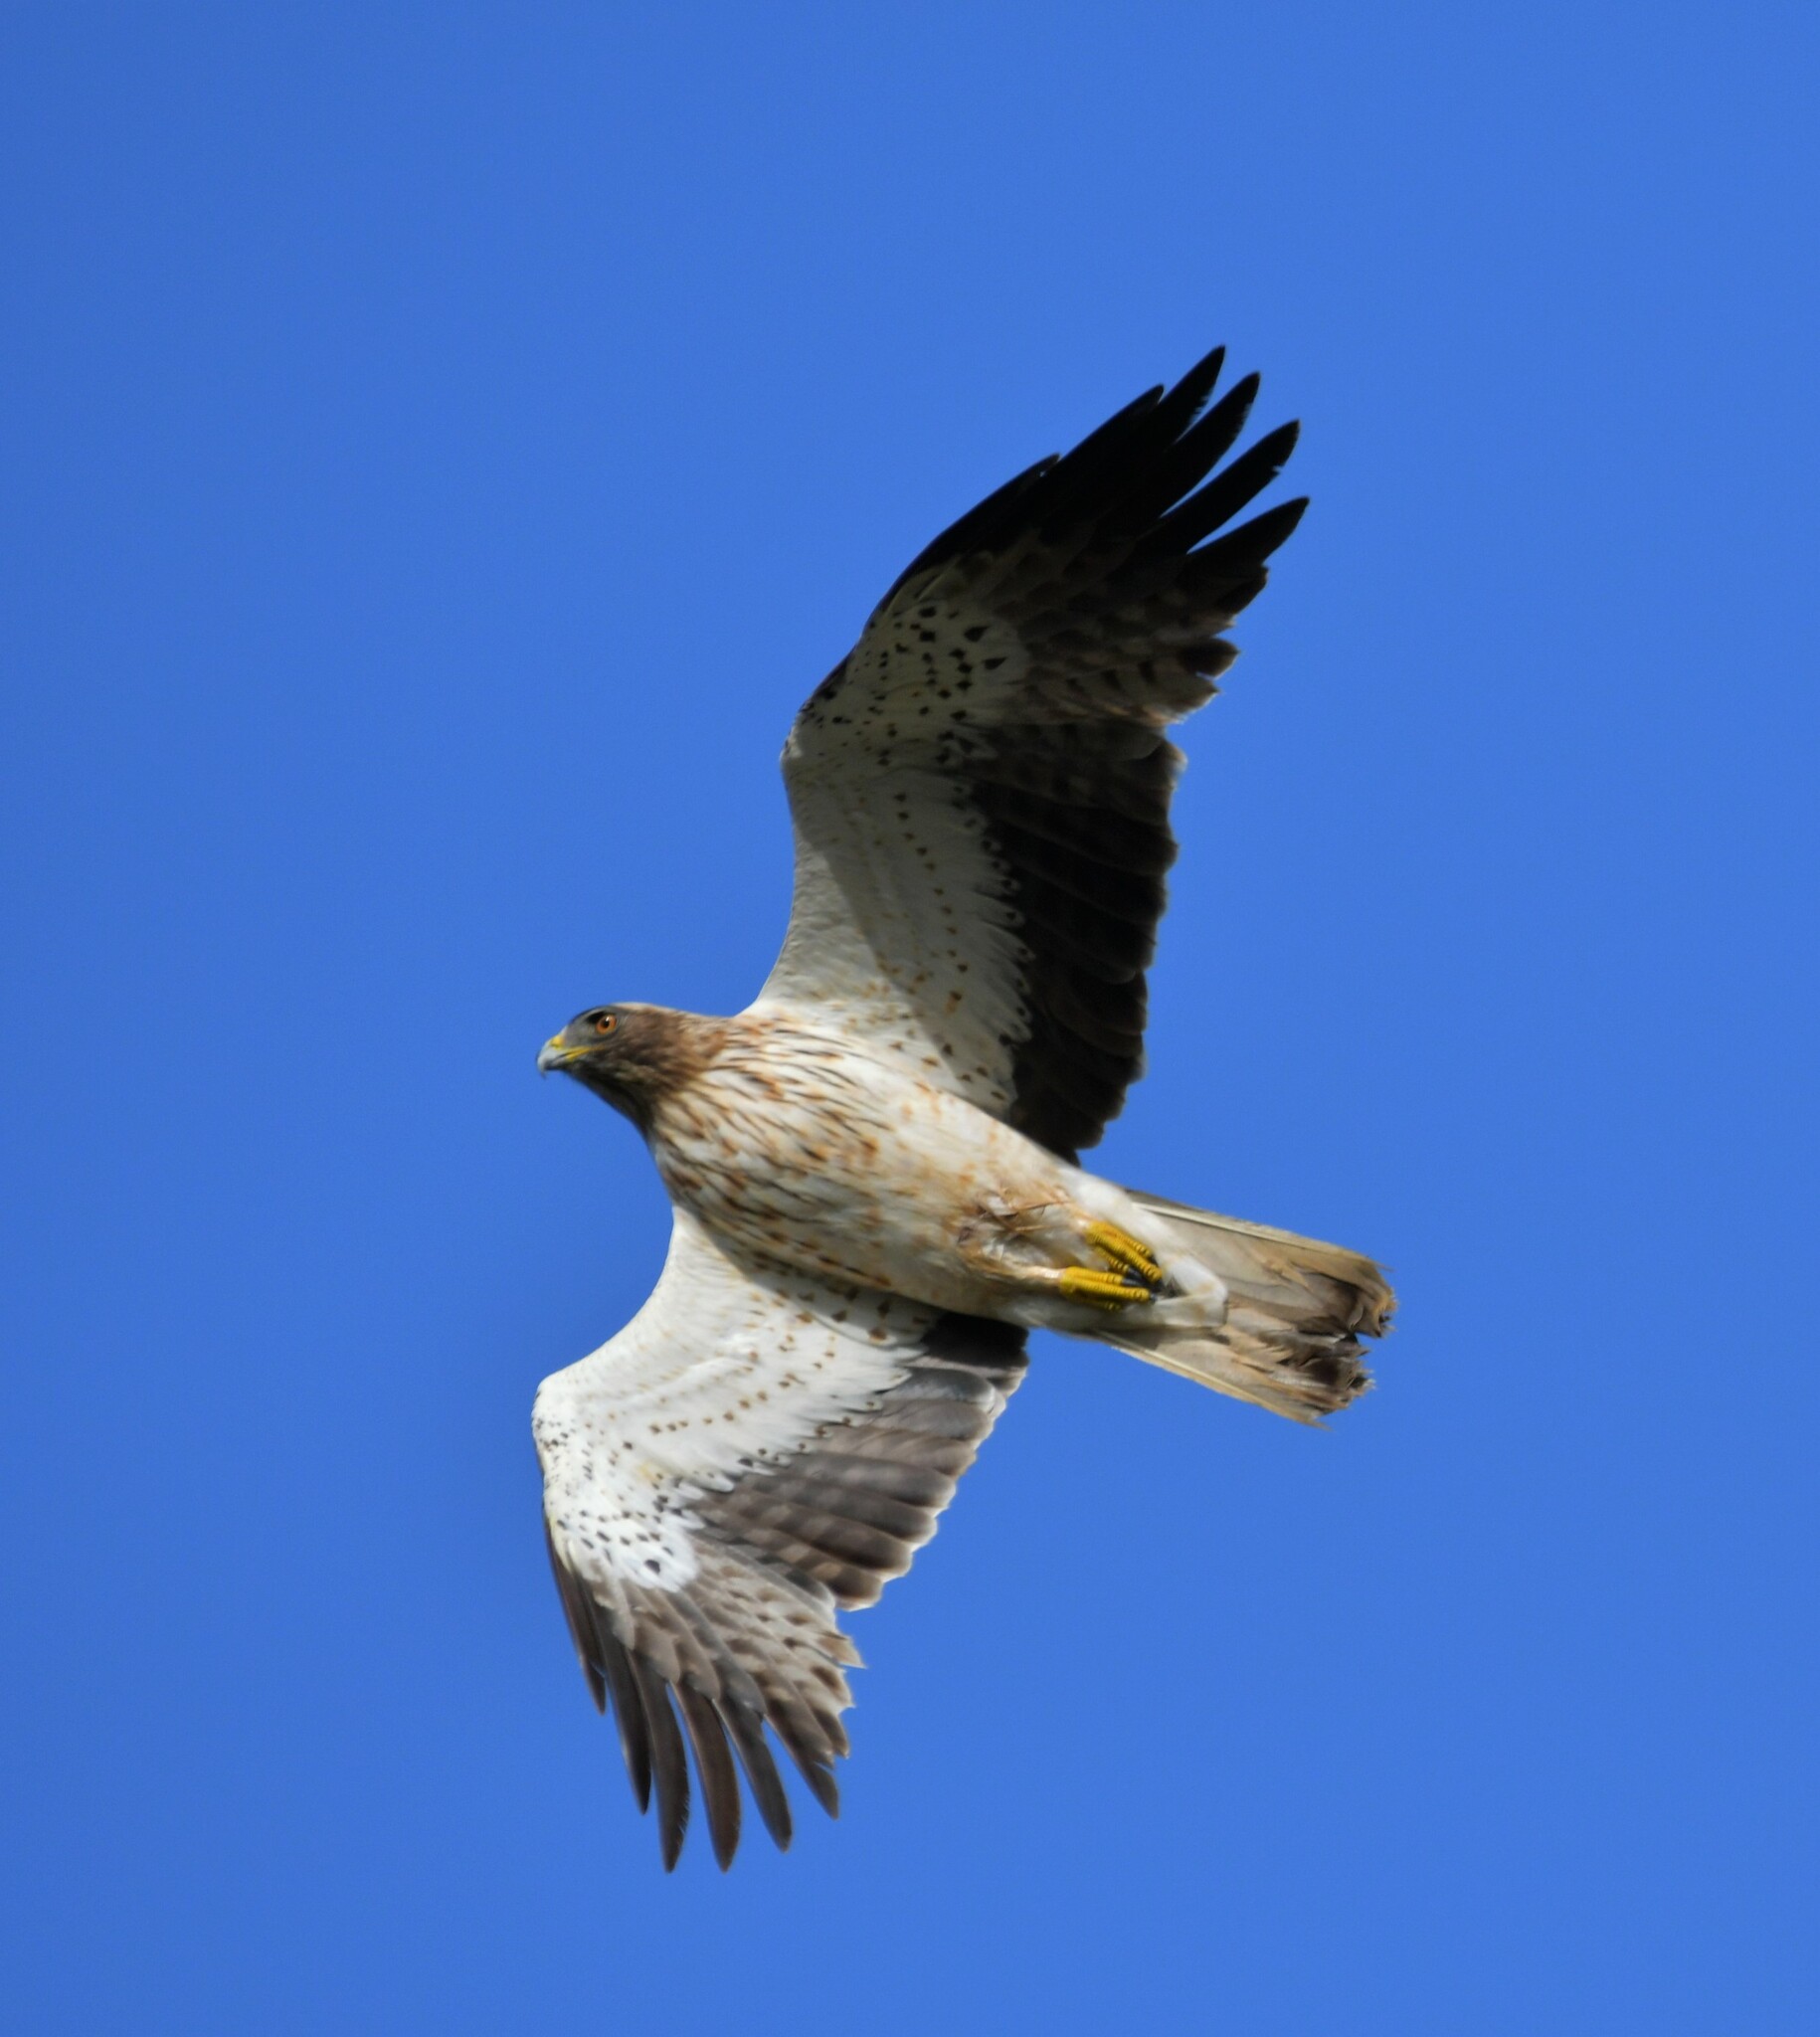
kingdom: Animalia
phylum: Chordata
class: Aves
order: Accipitriformes
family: Accipitridae
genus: Hieraaetus
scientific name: Hieraaetus pennatus
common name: Booted eagle
